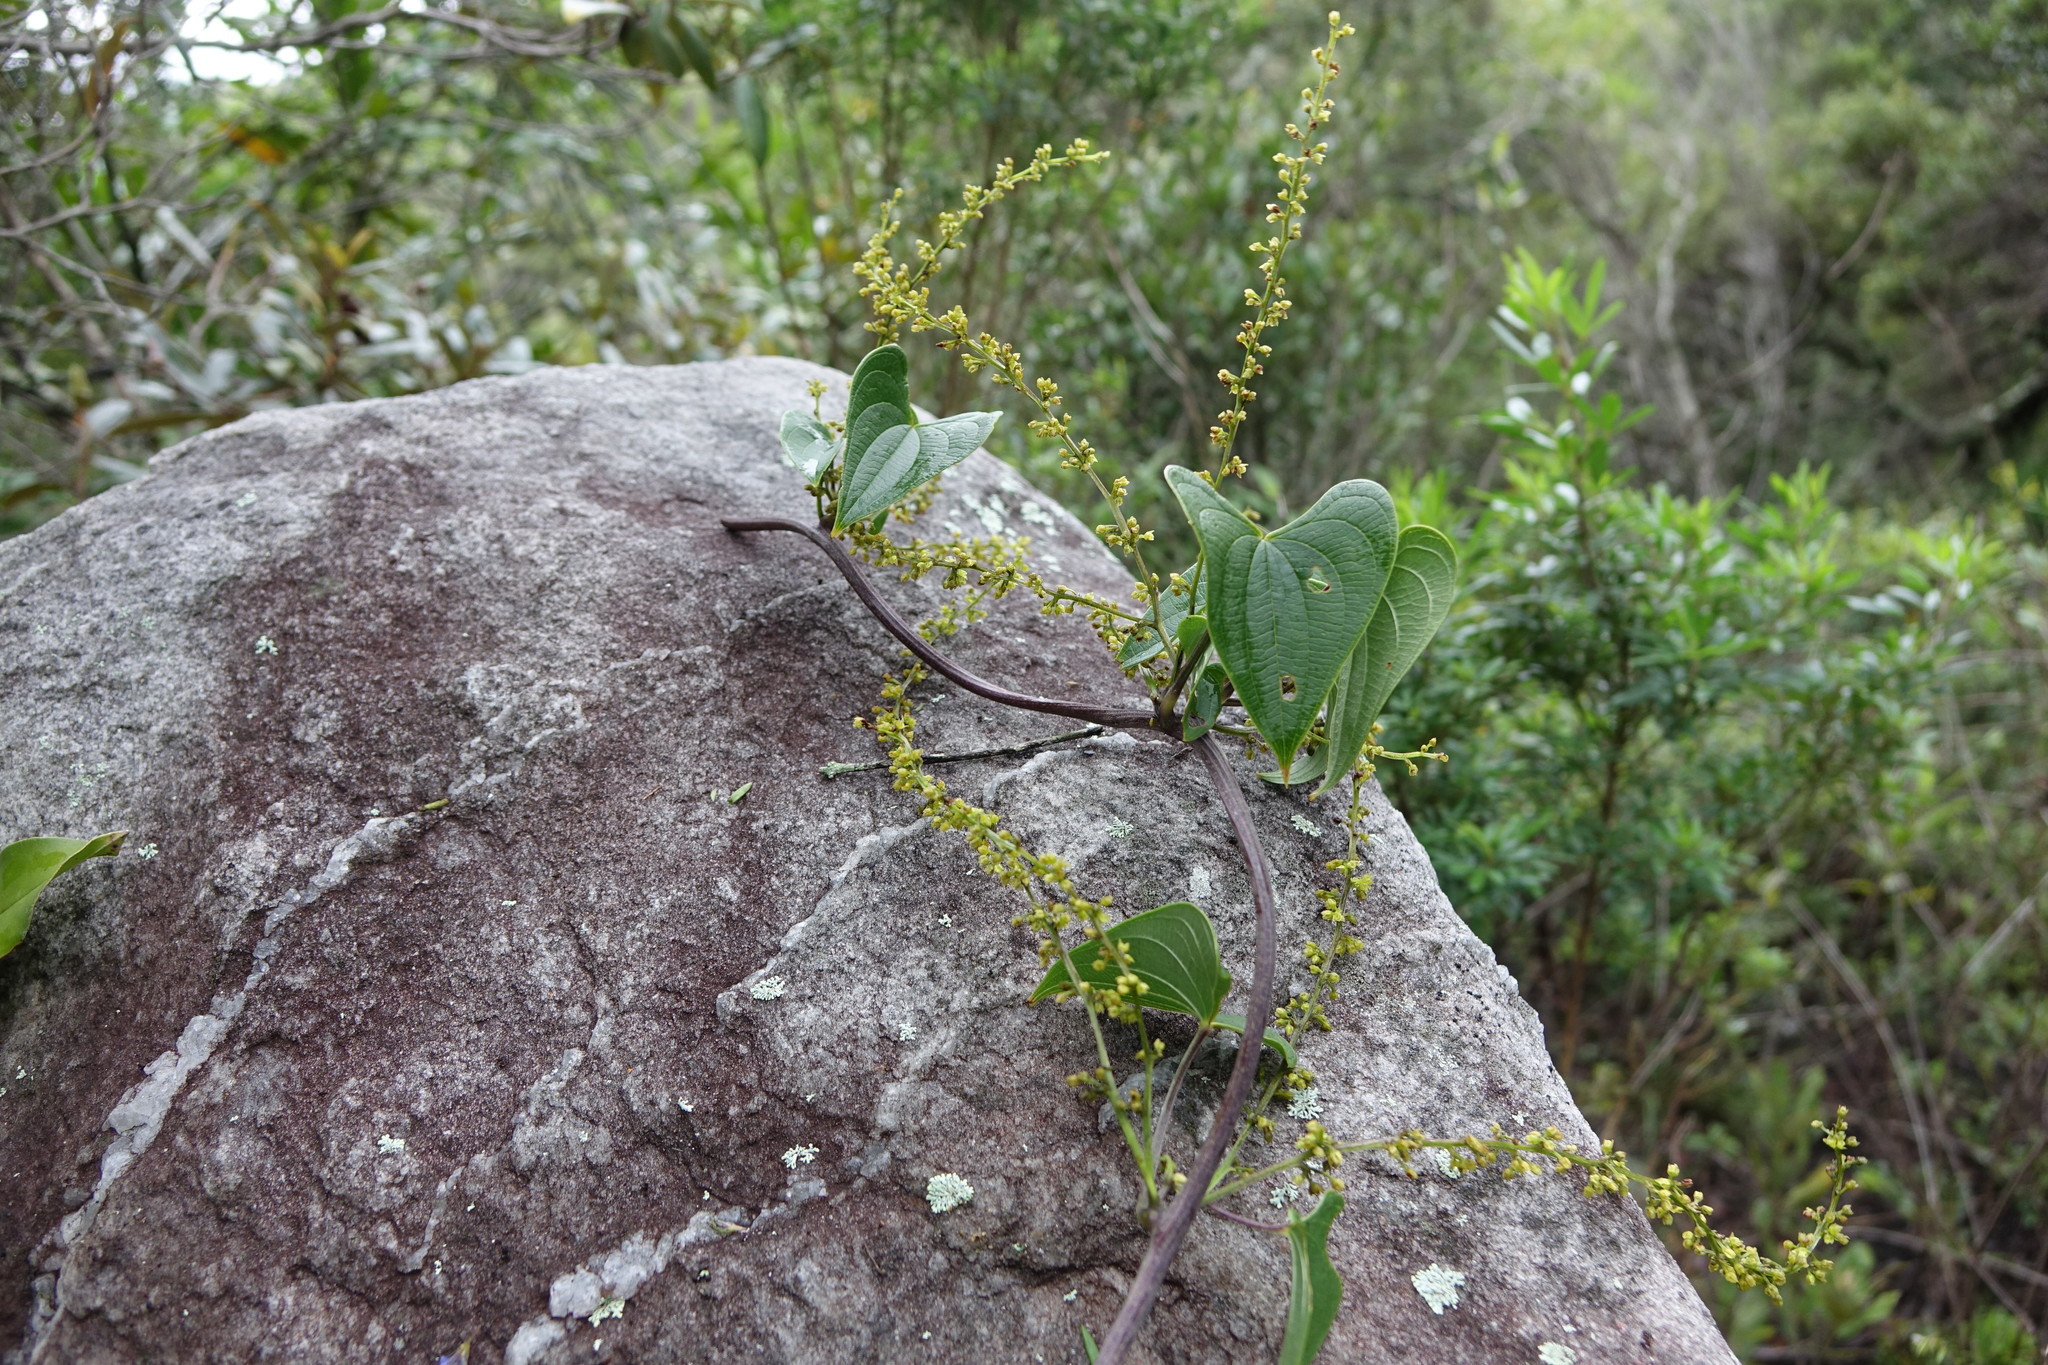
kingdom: Plantae
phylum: Tracheophyta
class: Liliopsida
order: Dioscoreales
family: Dioscoreaceae
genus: Dioscorea
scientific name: Dioscorea heteropoda
